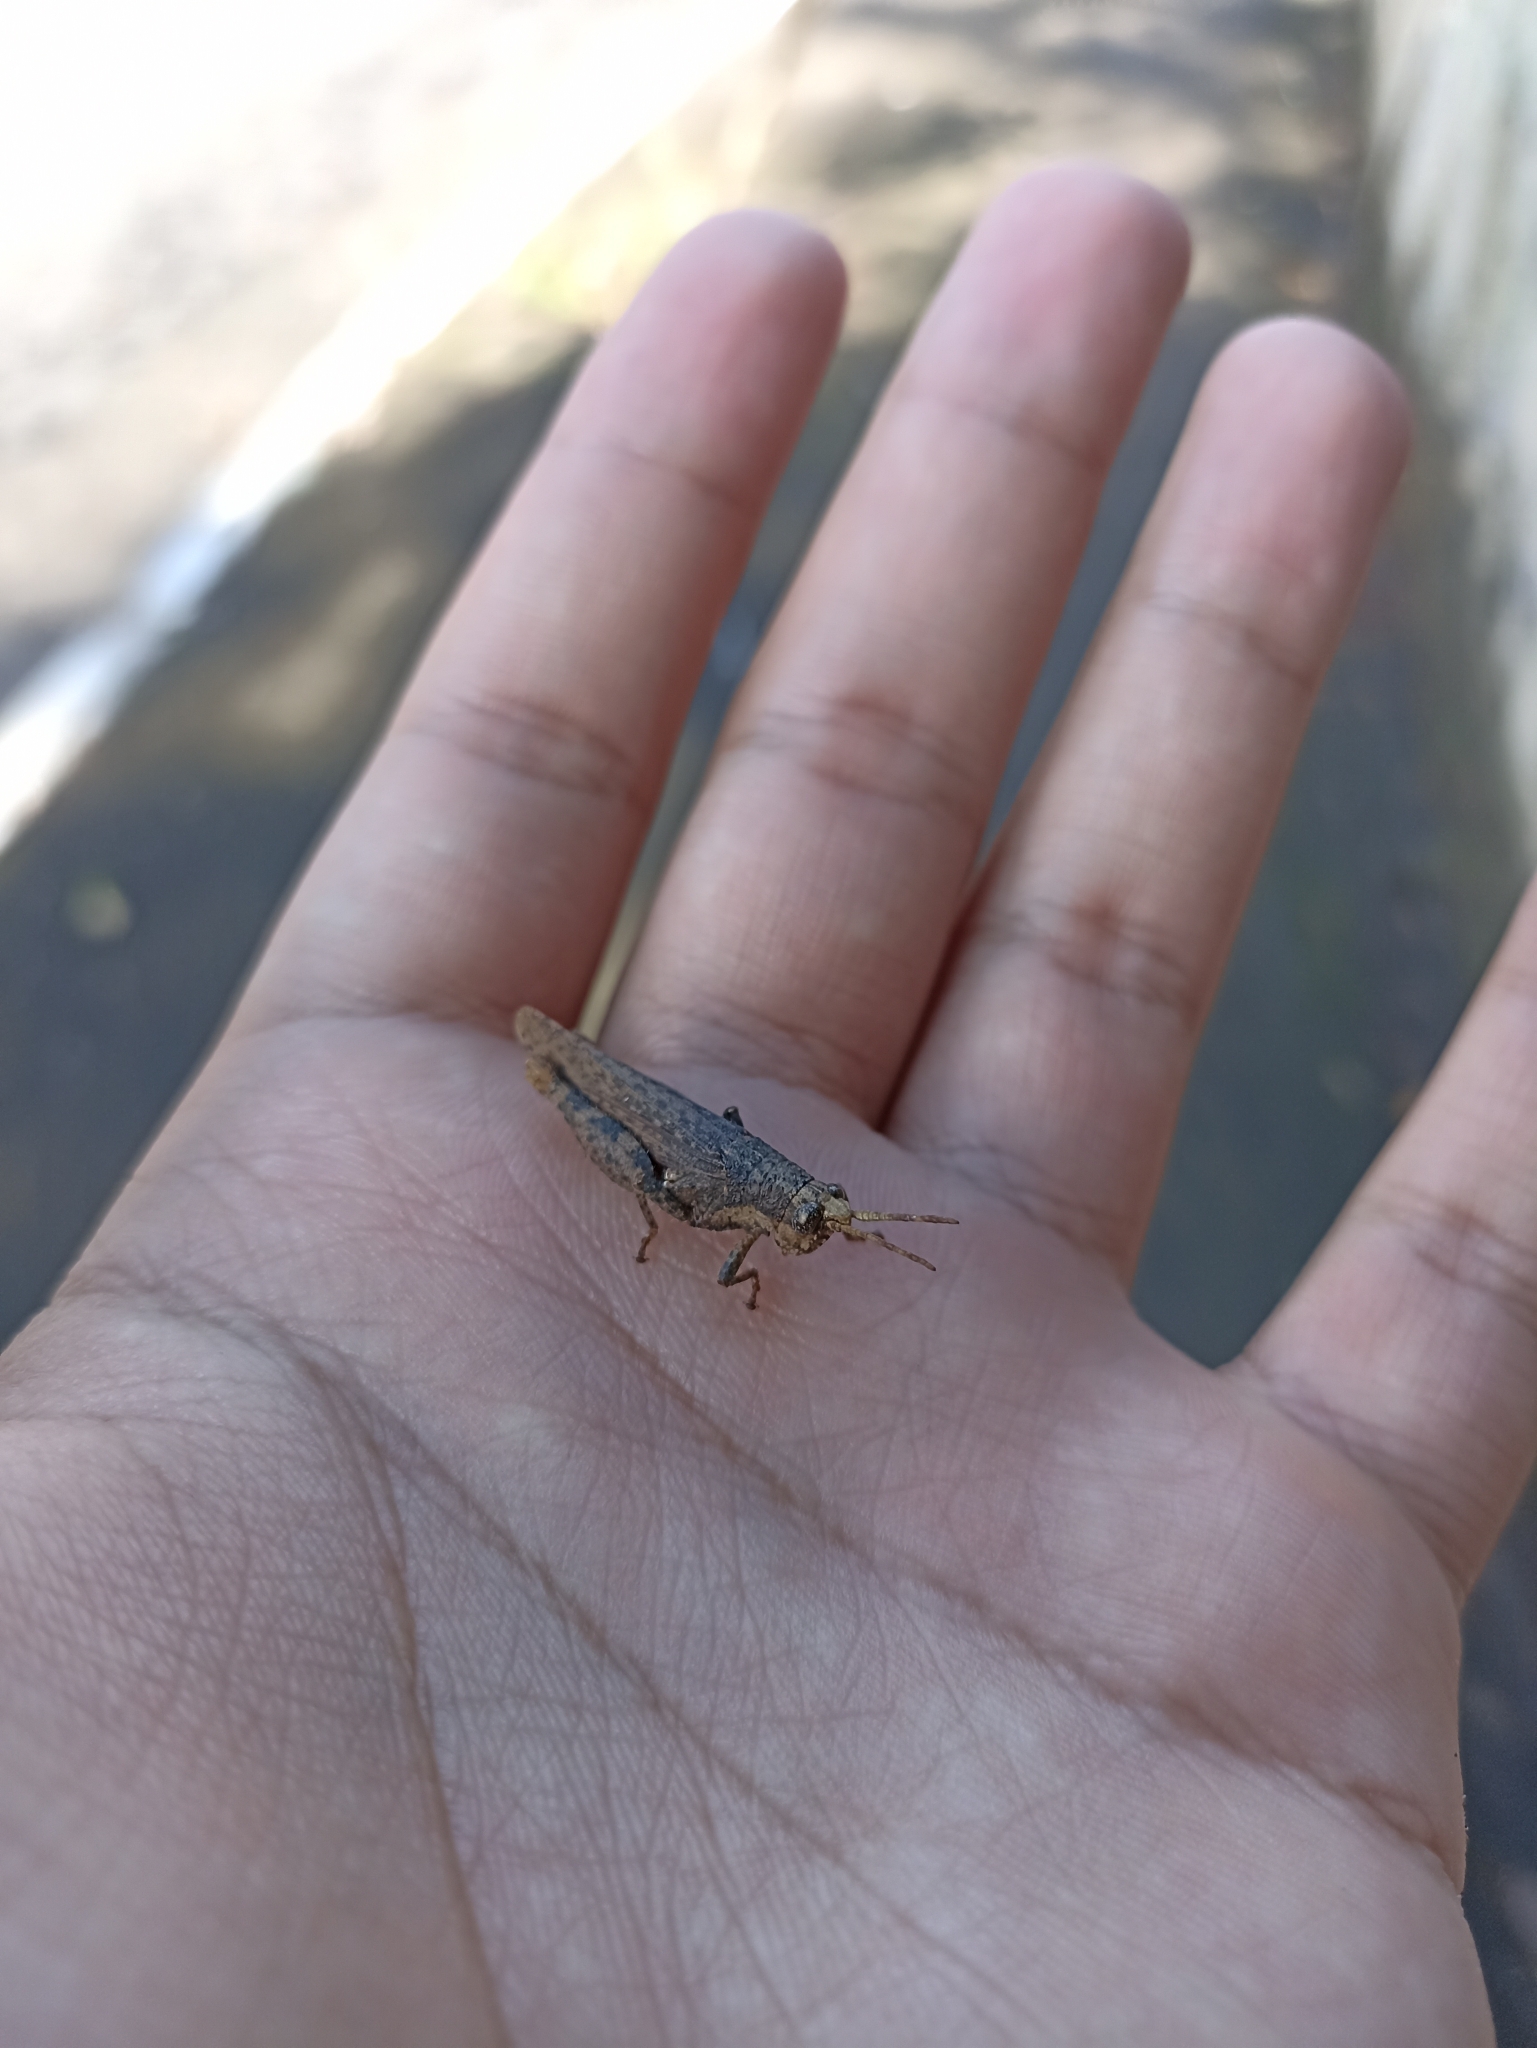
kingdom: Animalia
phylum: Arthropoda
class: Insecta
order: Orthoptera
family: Acrididae
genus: Vilerna
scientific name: Vilerna rugulosa
